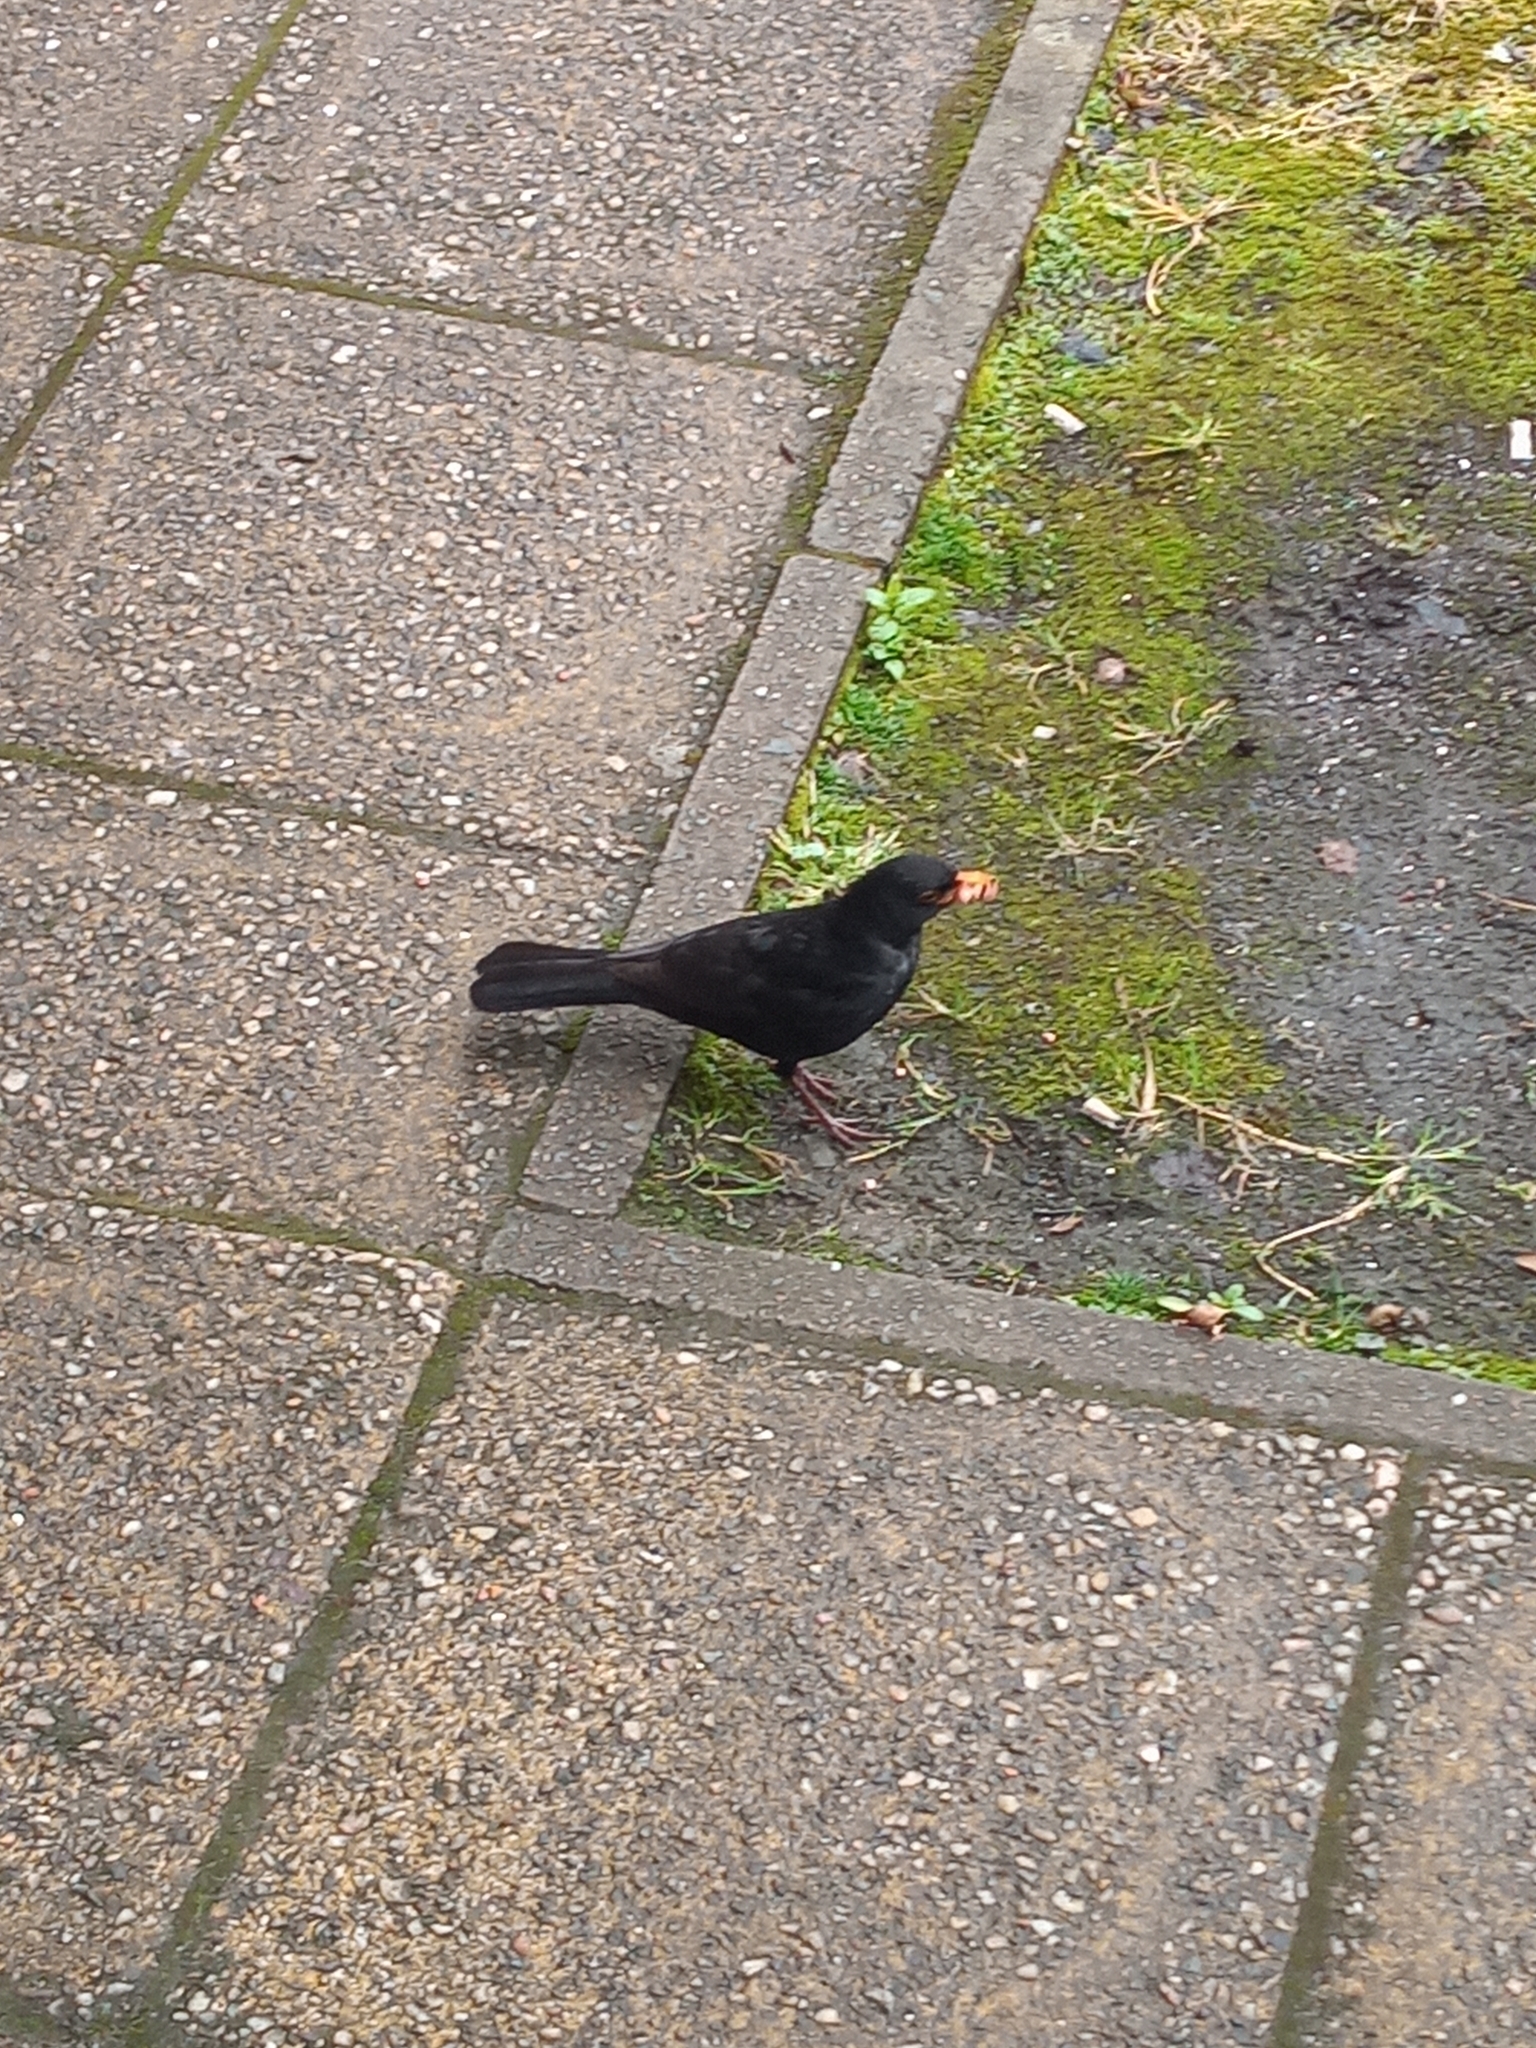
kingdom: Animalia
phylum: Chordata
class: Aves
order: Passeriformes
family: Turdidae
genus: Turdus
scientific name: Turdus merula
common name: Common blackbird
